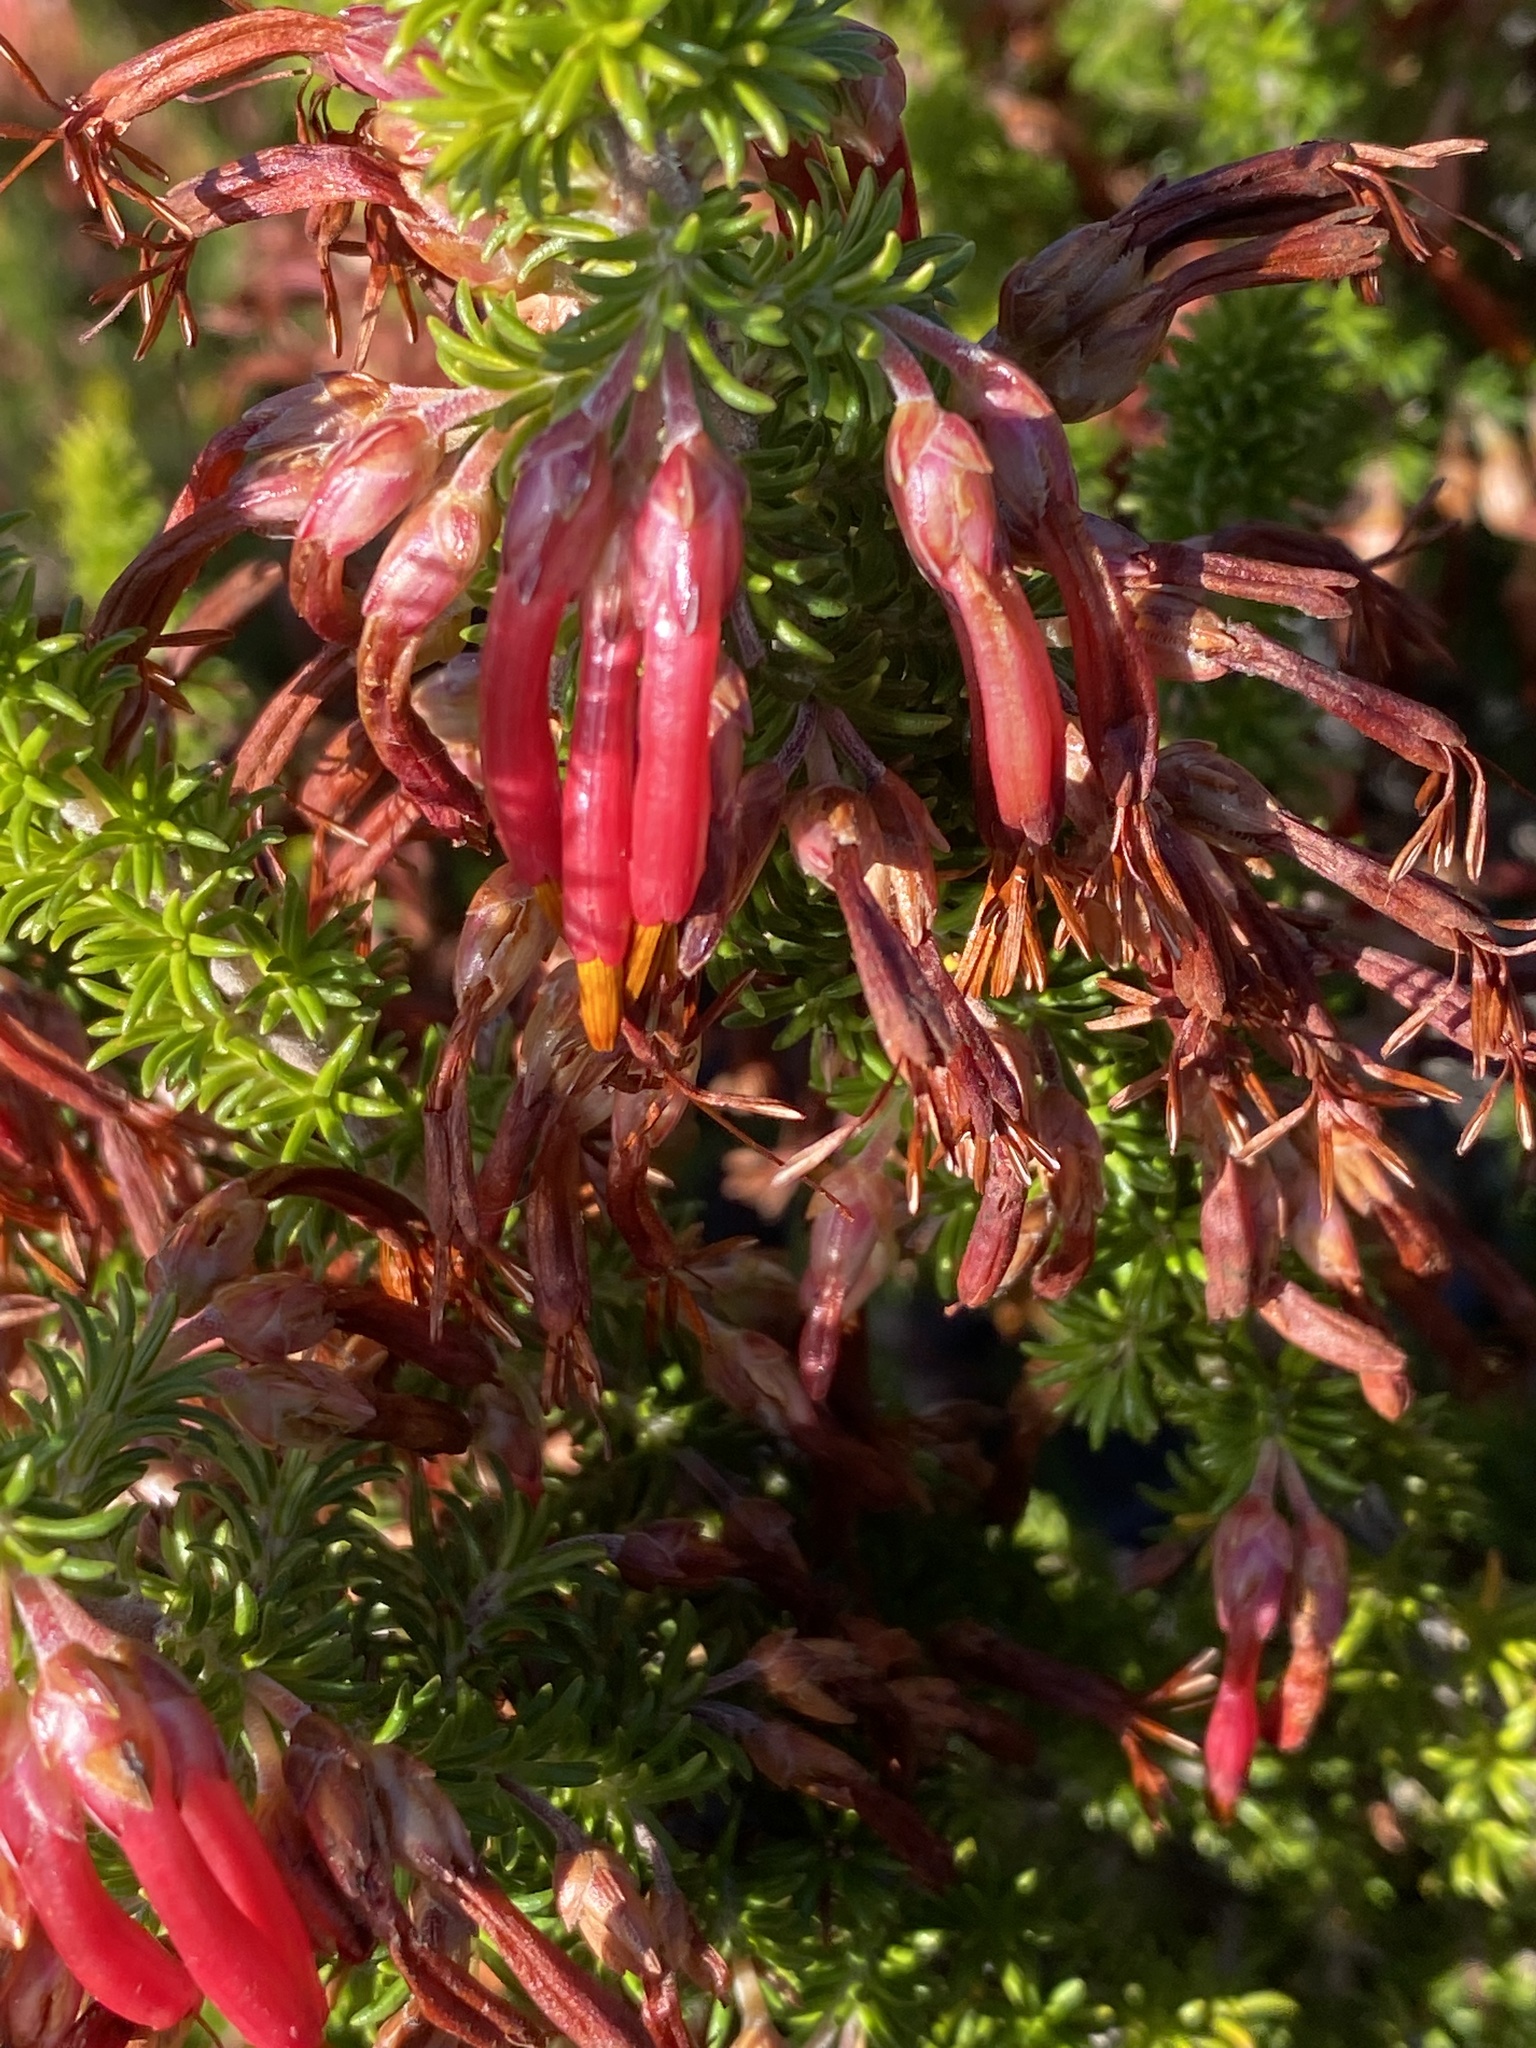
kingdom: Plantae
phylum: Tracheophyta
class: Magnoliopsida
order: Ericales
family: Ericaceae
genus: Erica
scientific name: Erica coccinea
